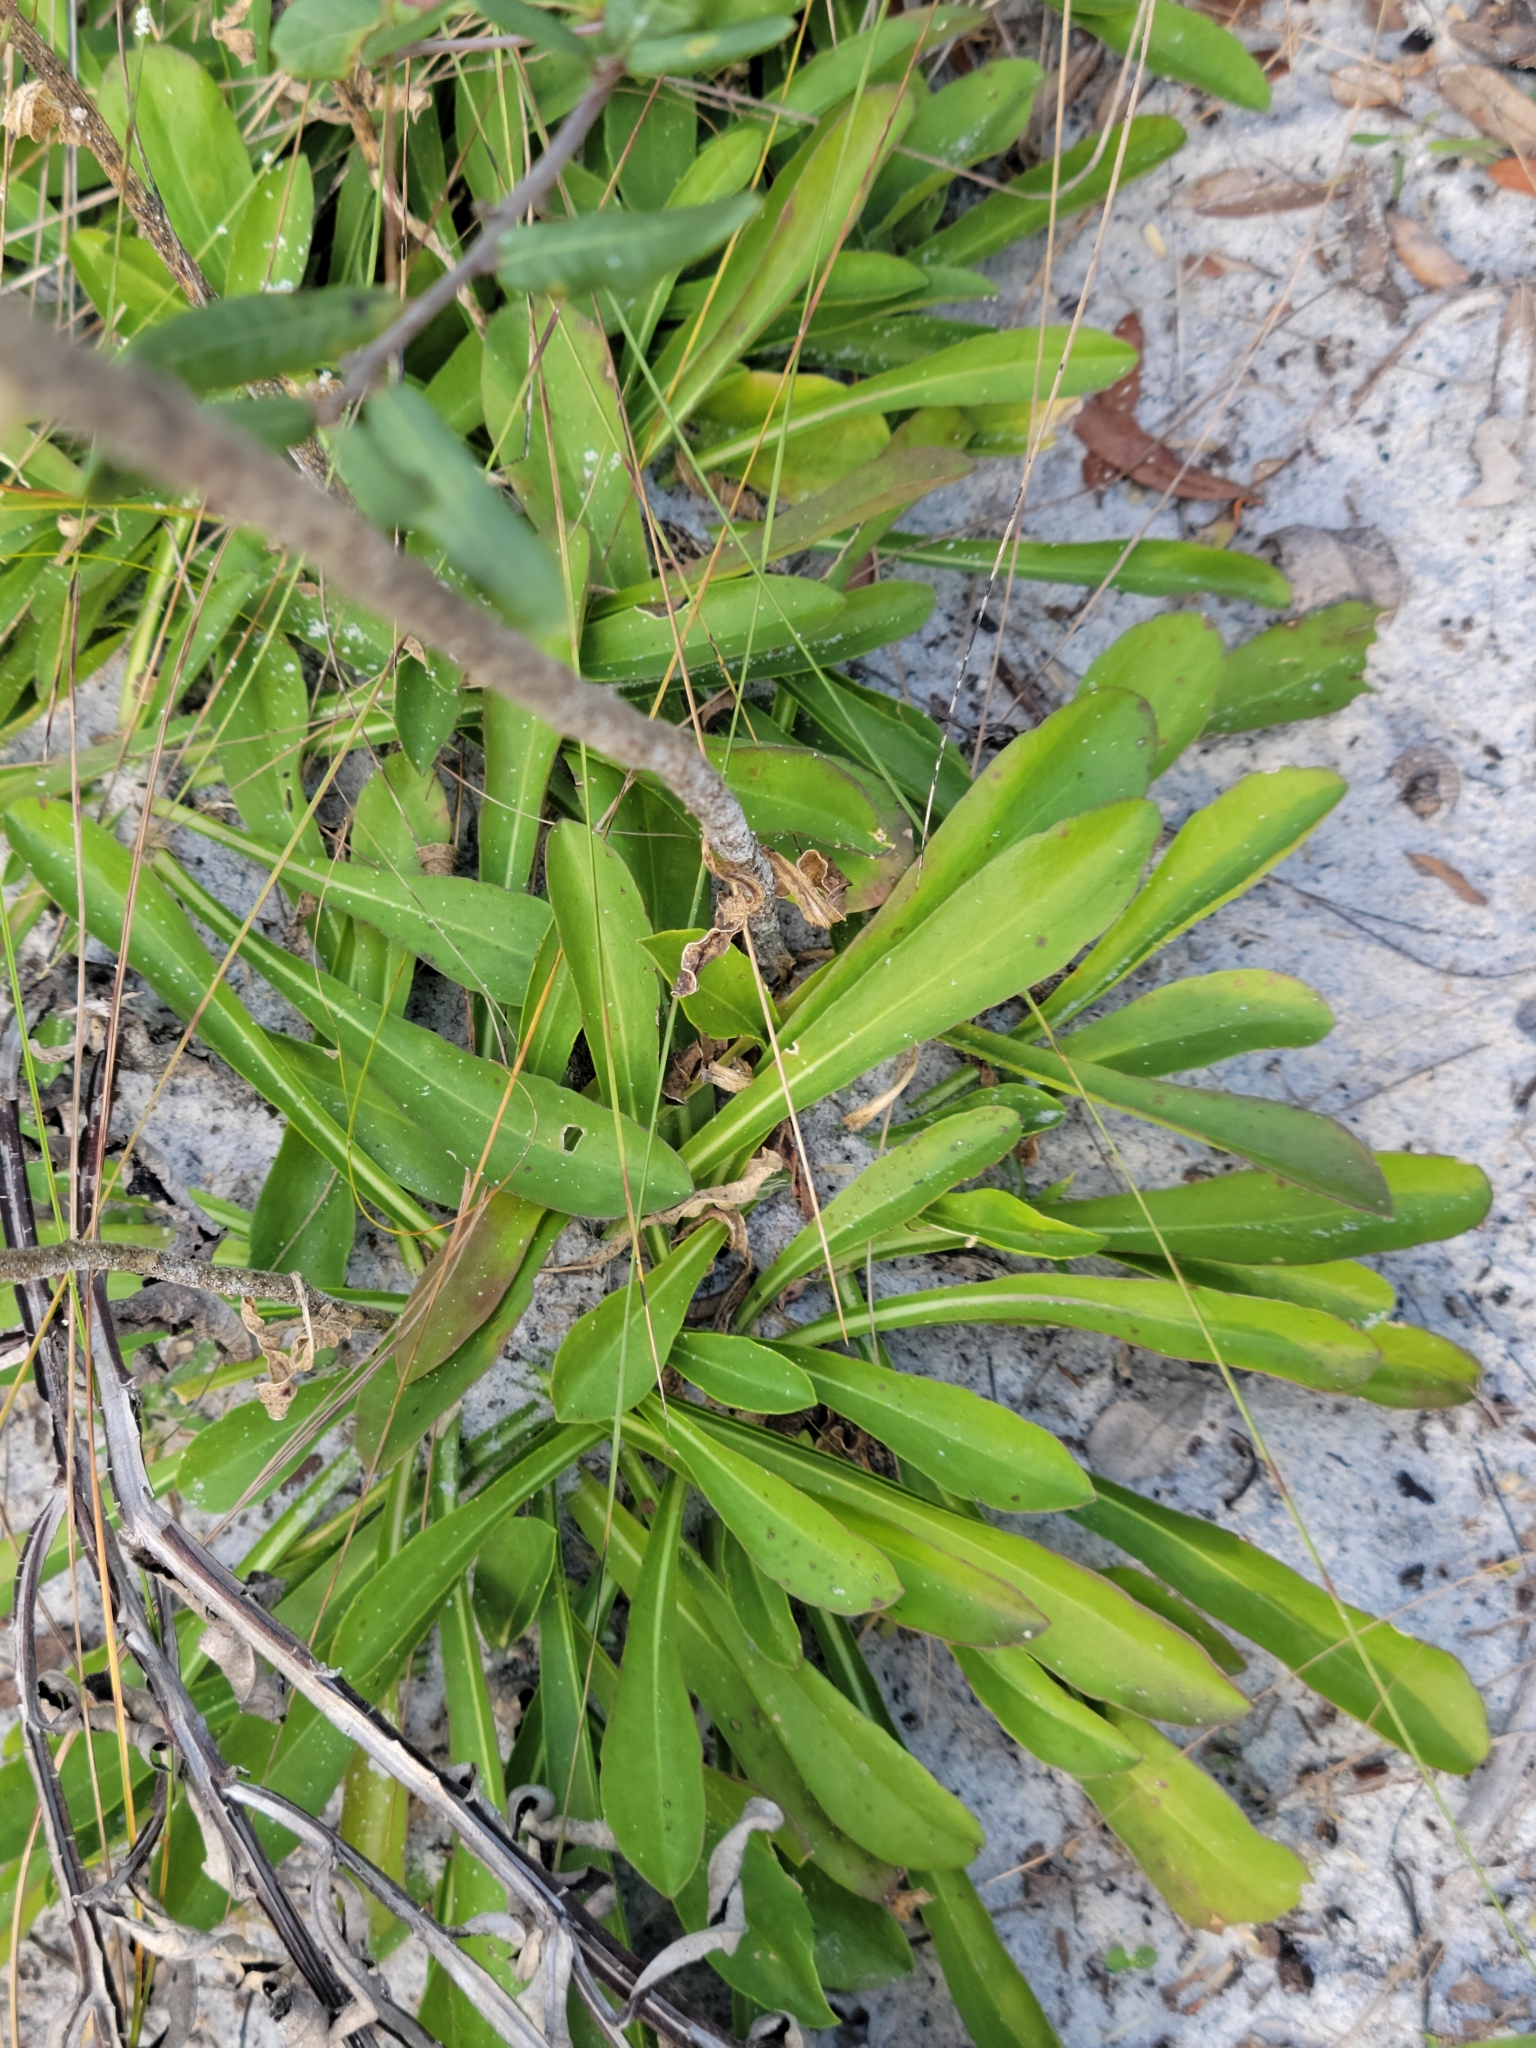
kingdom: Plantae
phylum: Tracheophyta
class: Magnoliopsida
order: Asterales
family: Asteraceae
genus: Carphephorus
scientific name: Carphephorus corymbosus
